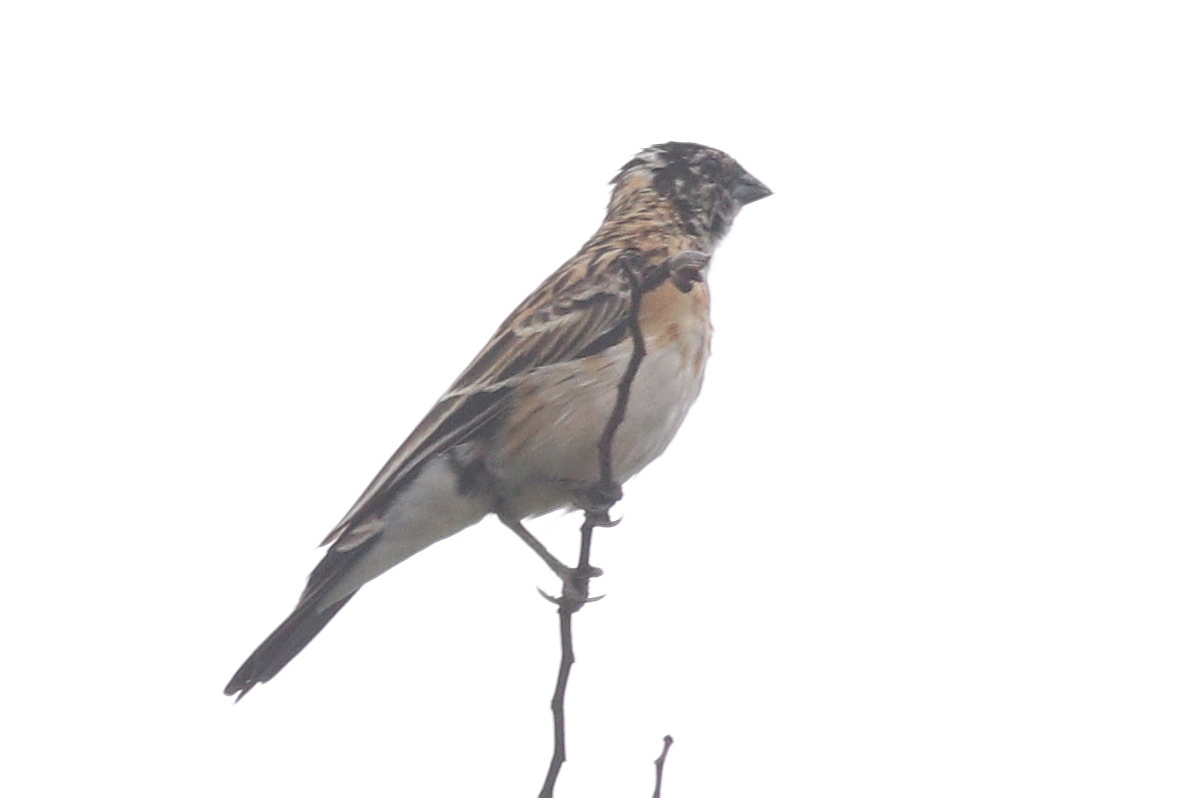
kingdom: Animalia
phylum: Chordata
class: Aves
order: Passeriformes
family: Viduidae
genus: Vidua
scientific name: Vidua paradisaea
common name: Long-tailed paradise whydah
